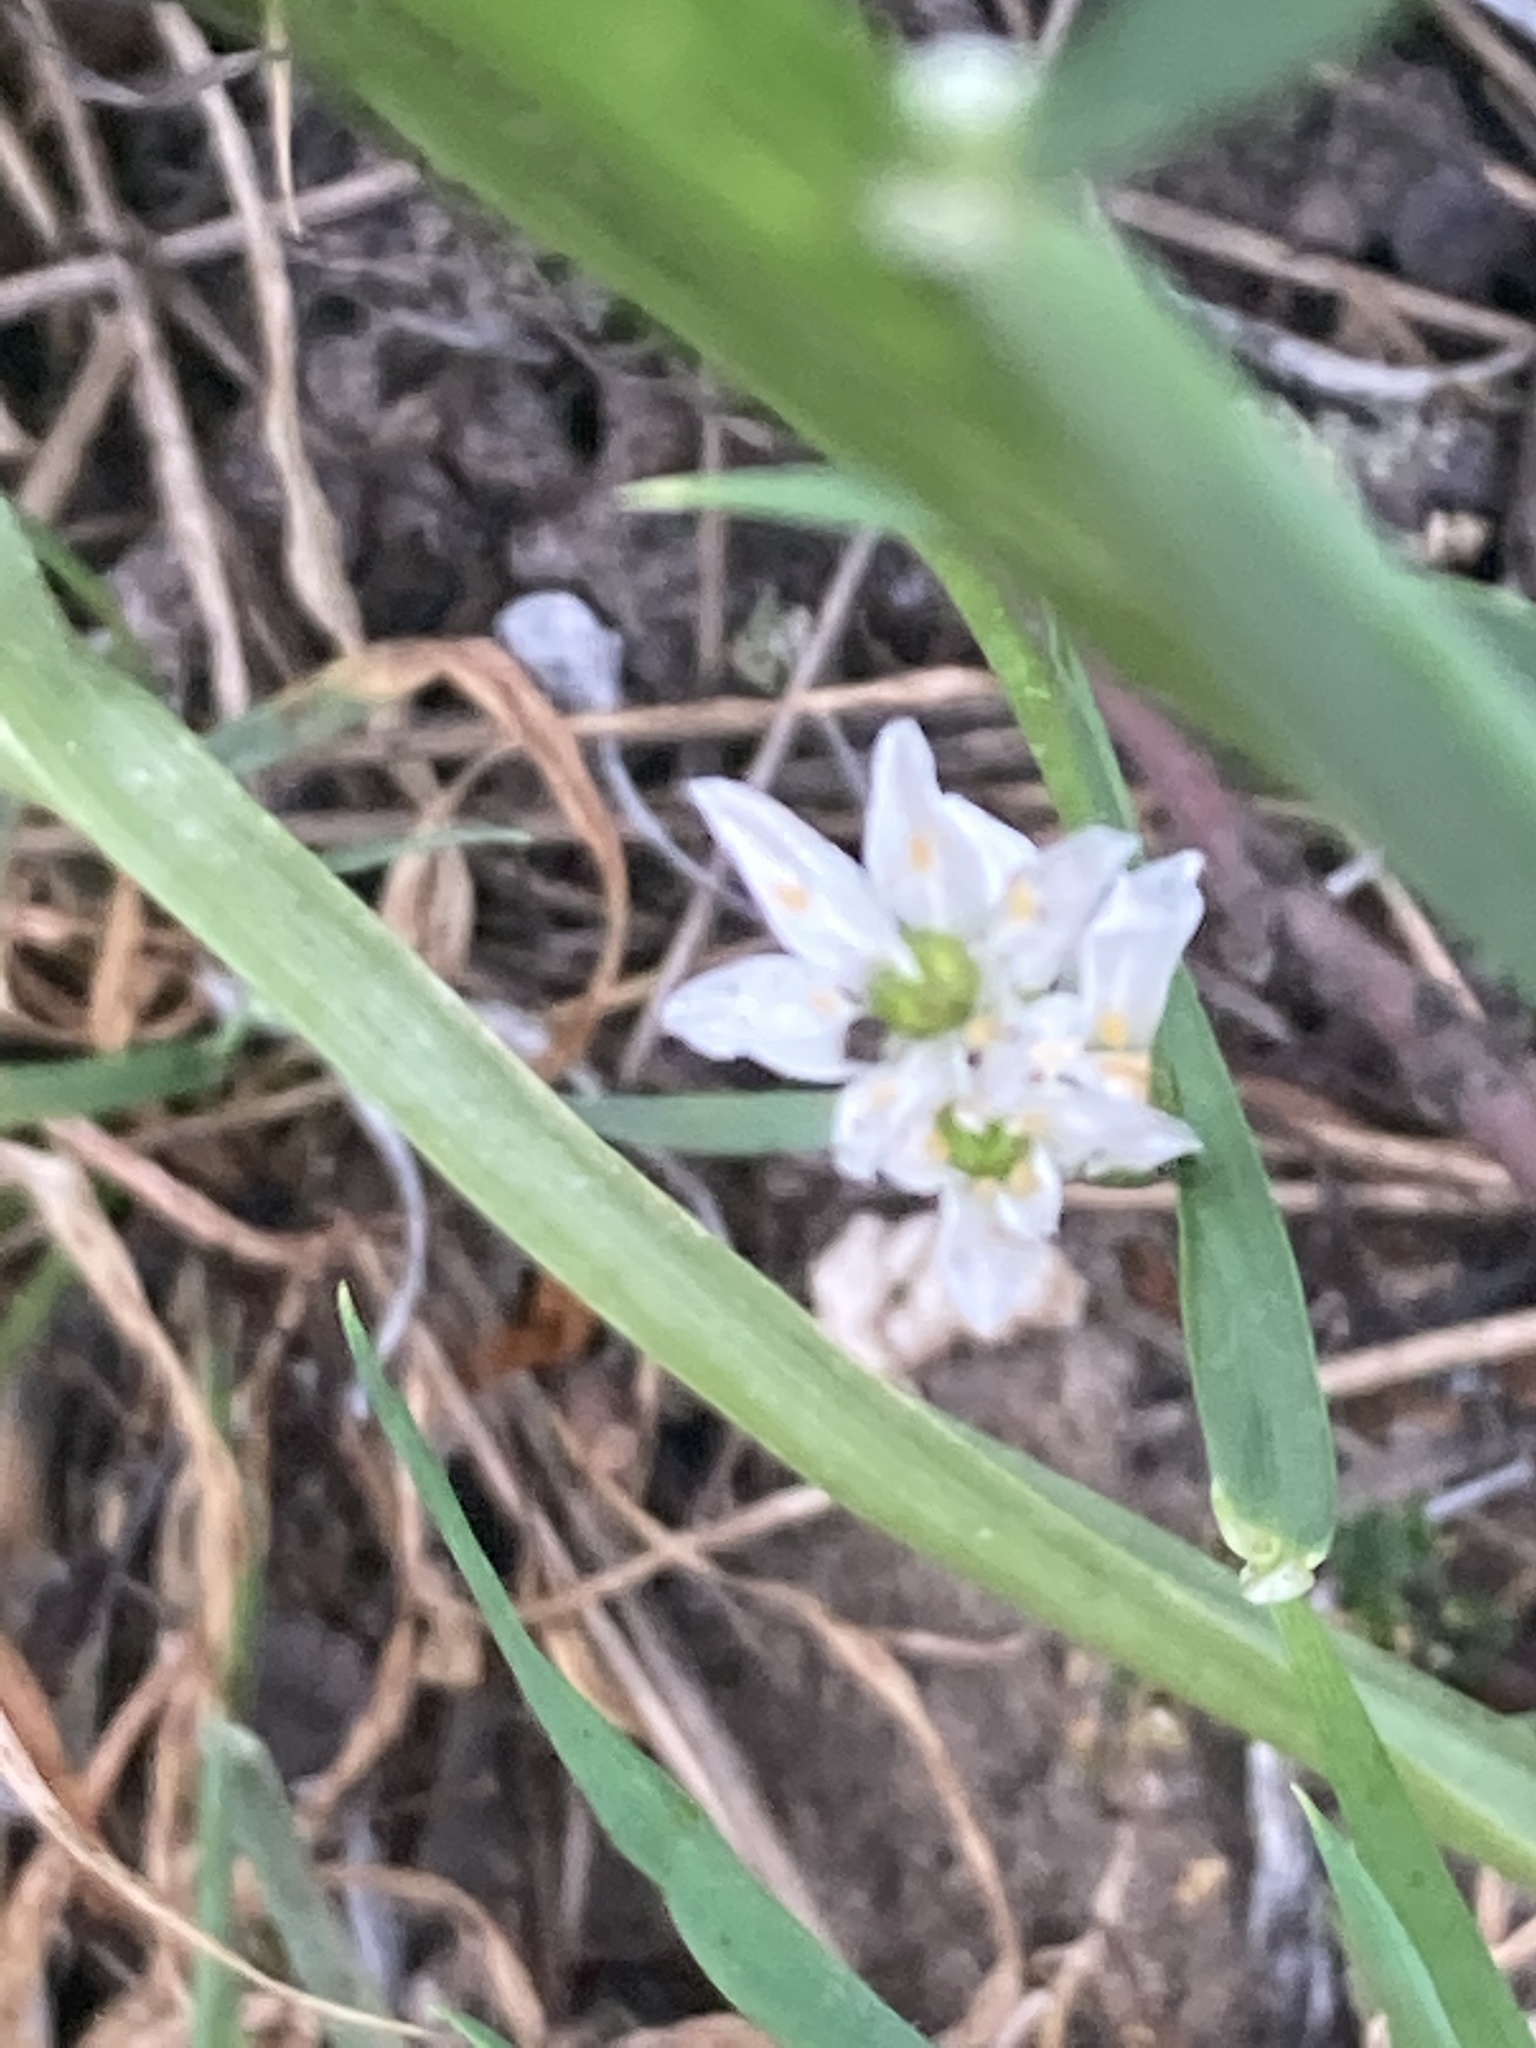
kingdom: Plantae
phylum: Tracheophyta
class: Liliopsida
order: Asparagales
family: Amaryllidaceae
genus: Allium
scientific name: Allium tuberosum
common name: Chinese chives
